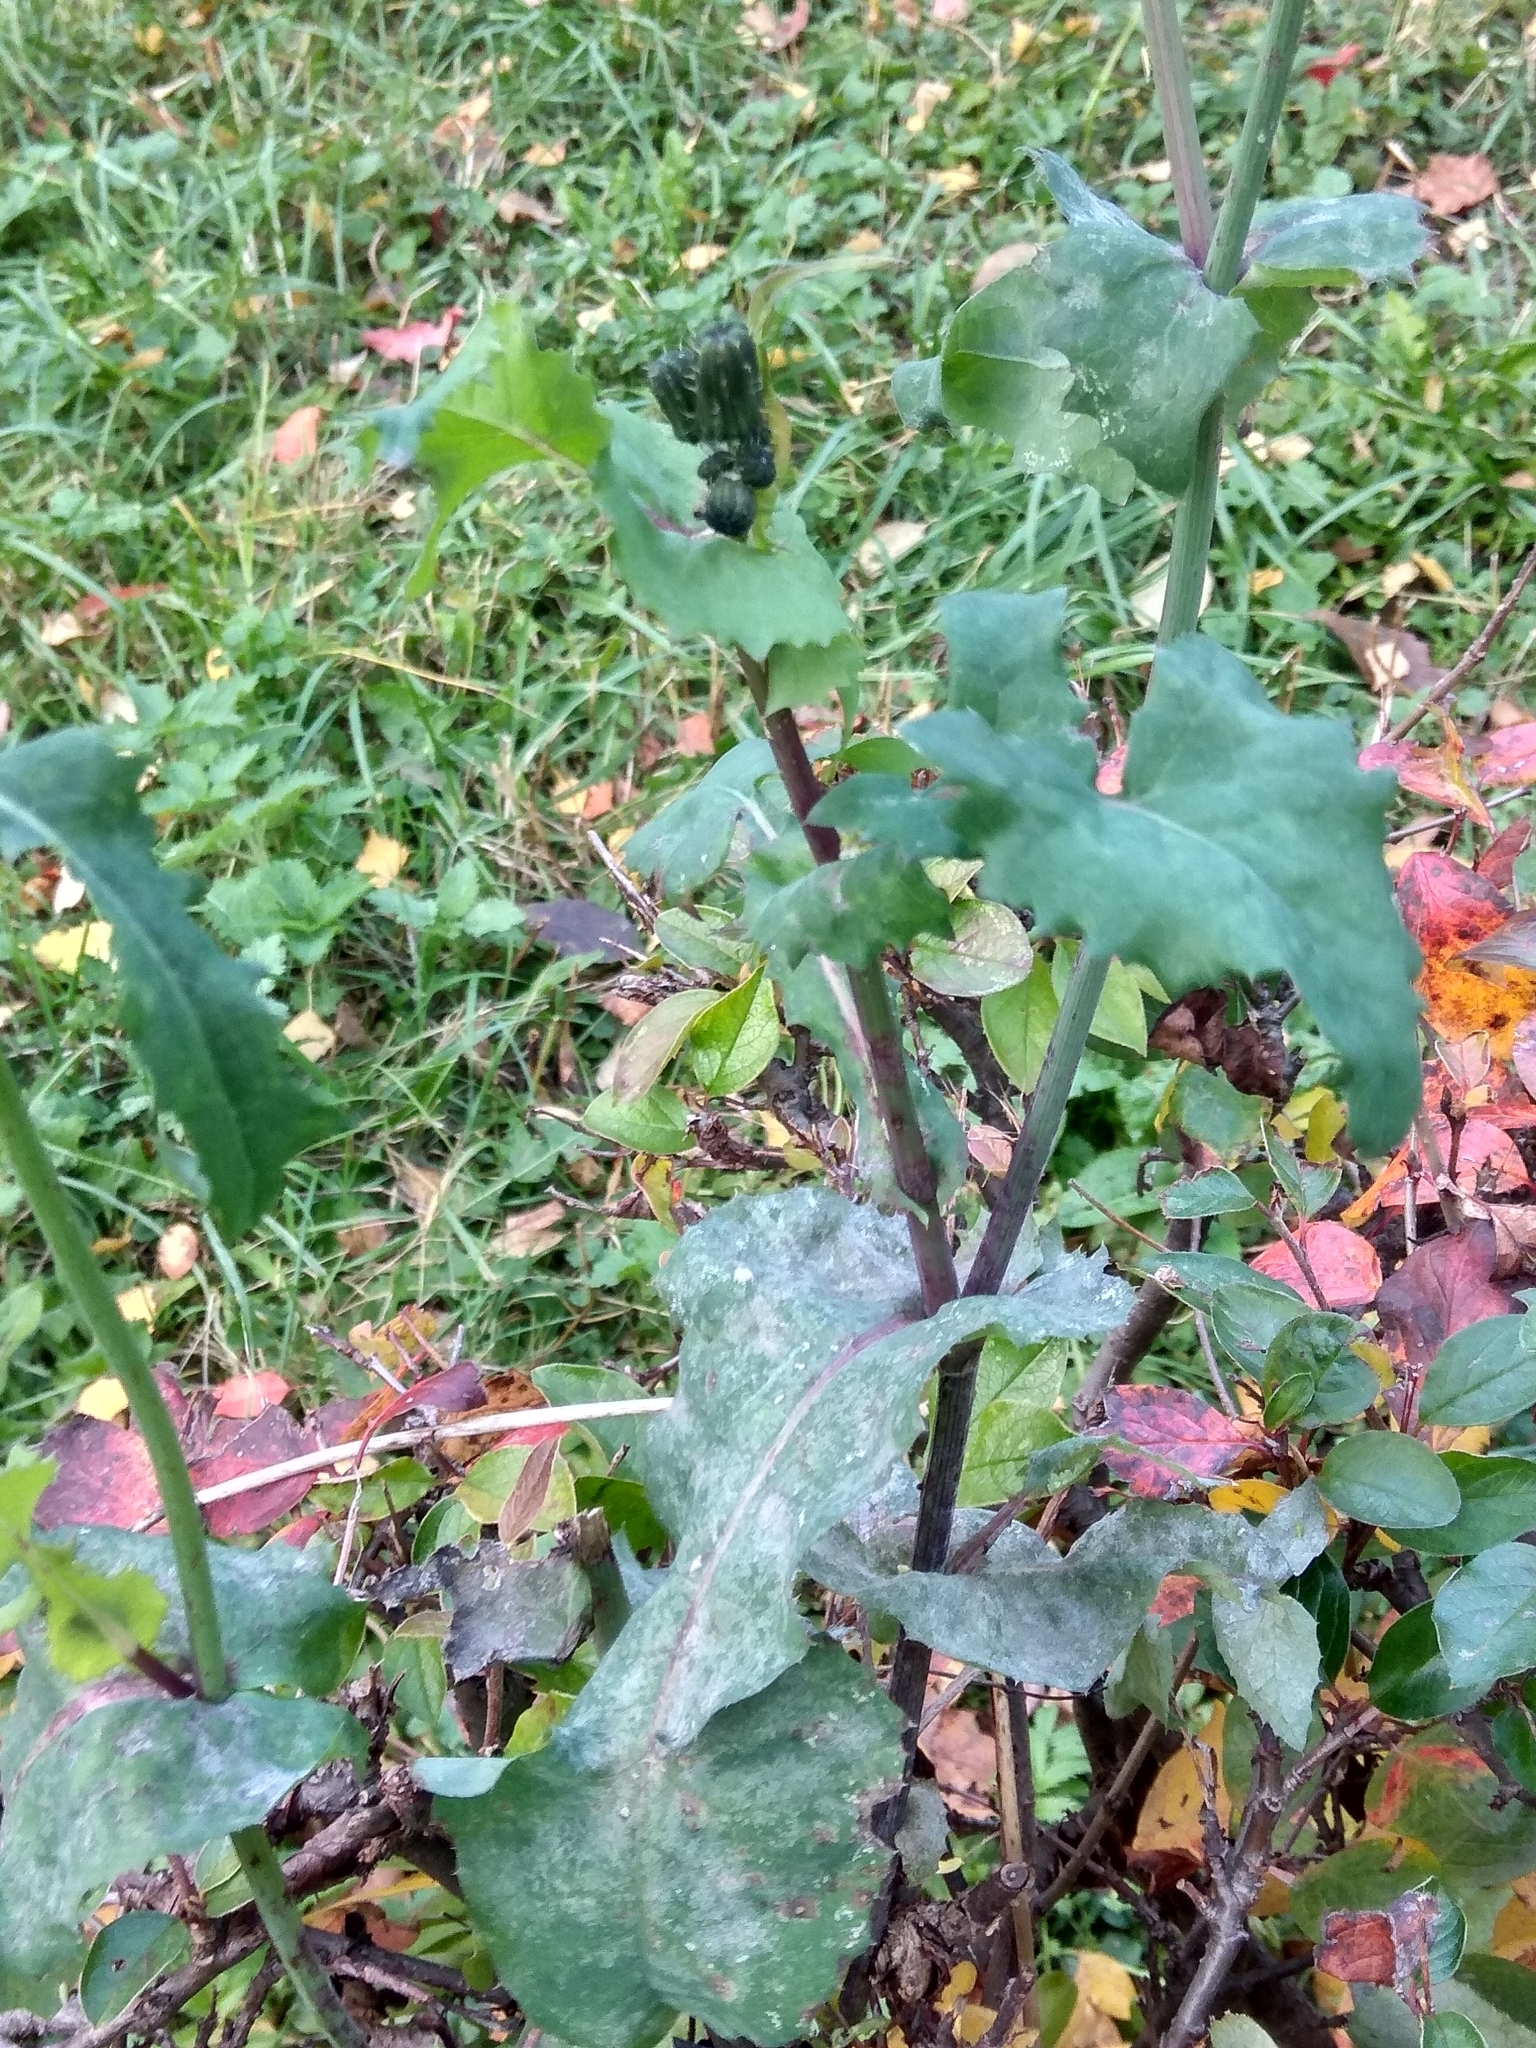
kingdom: Plantae
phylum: Tracheophyta
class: Magnoliopsida
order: Asterales
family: Asteraceae
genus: Sonchus
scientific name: Sonchus oleraceus
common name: Common sowthistle
